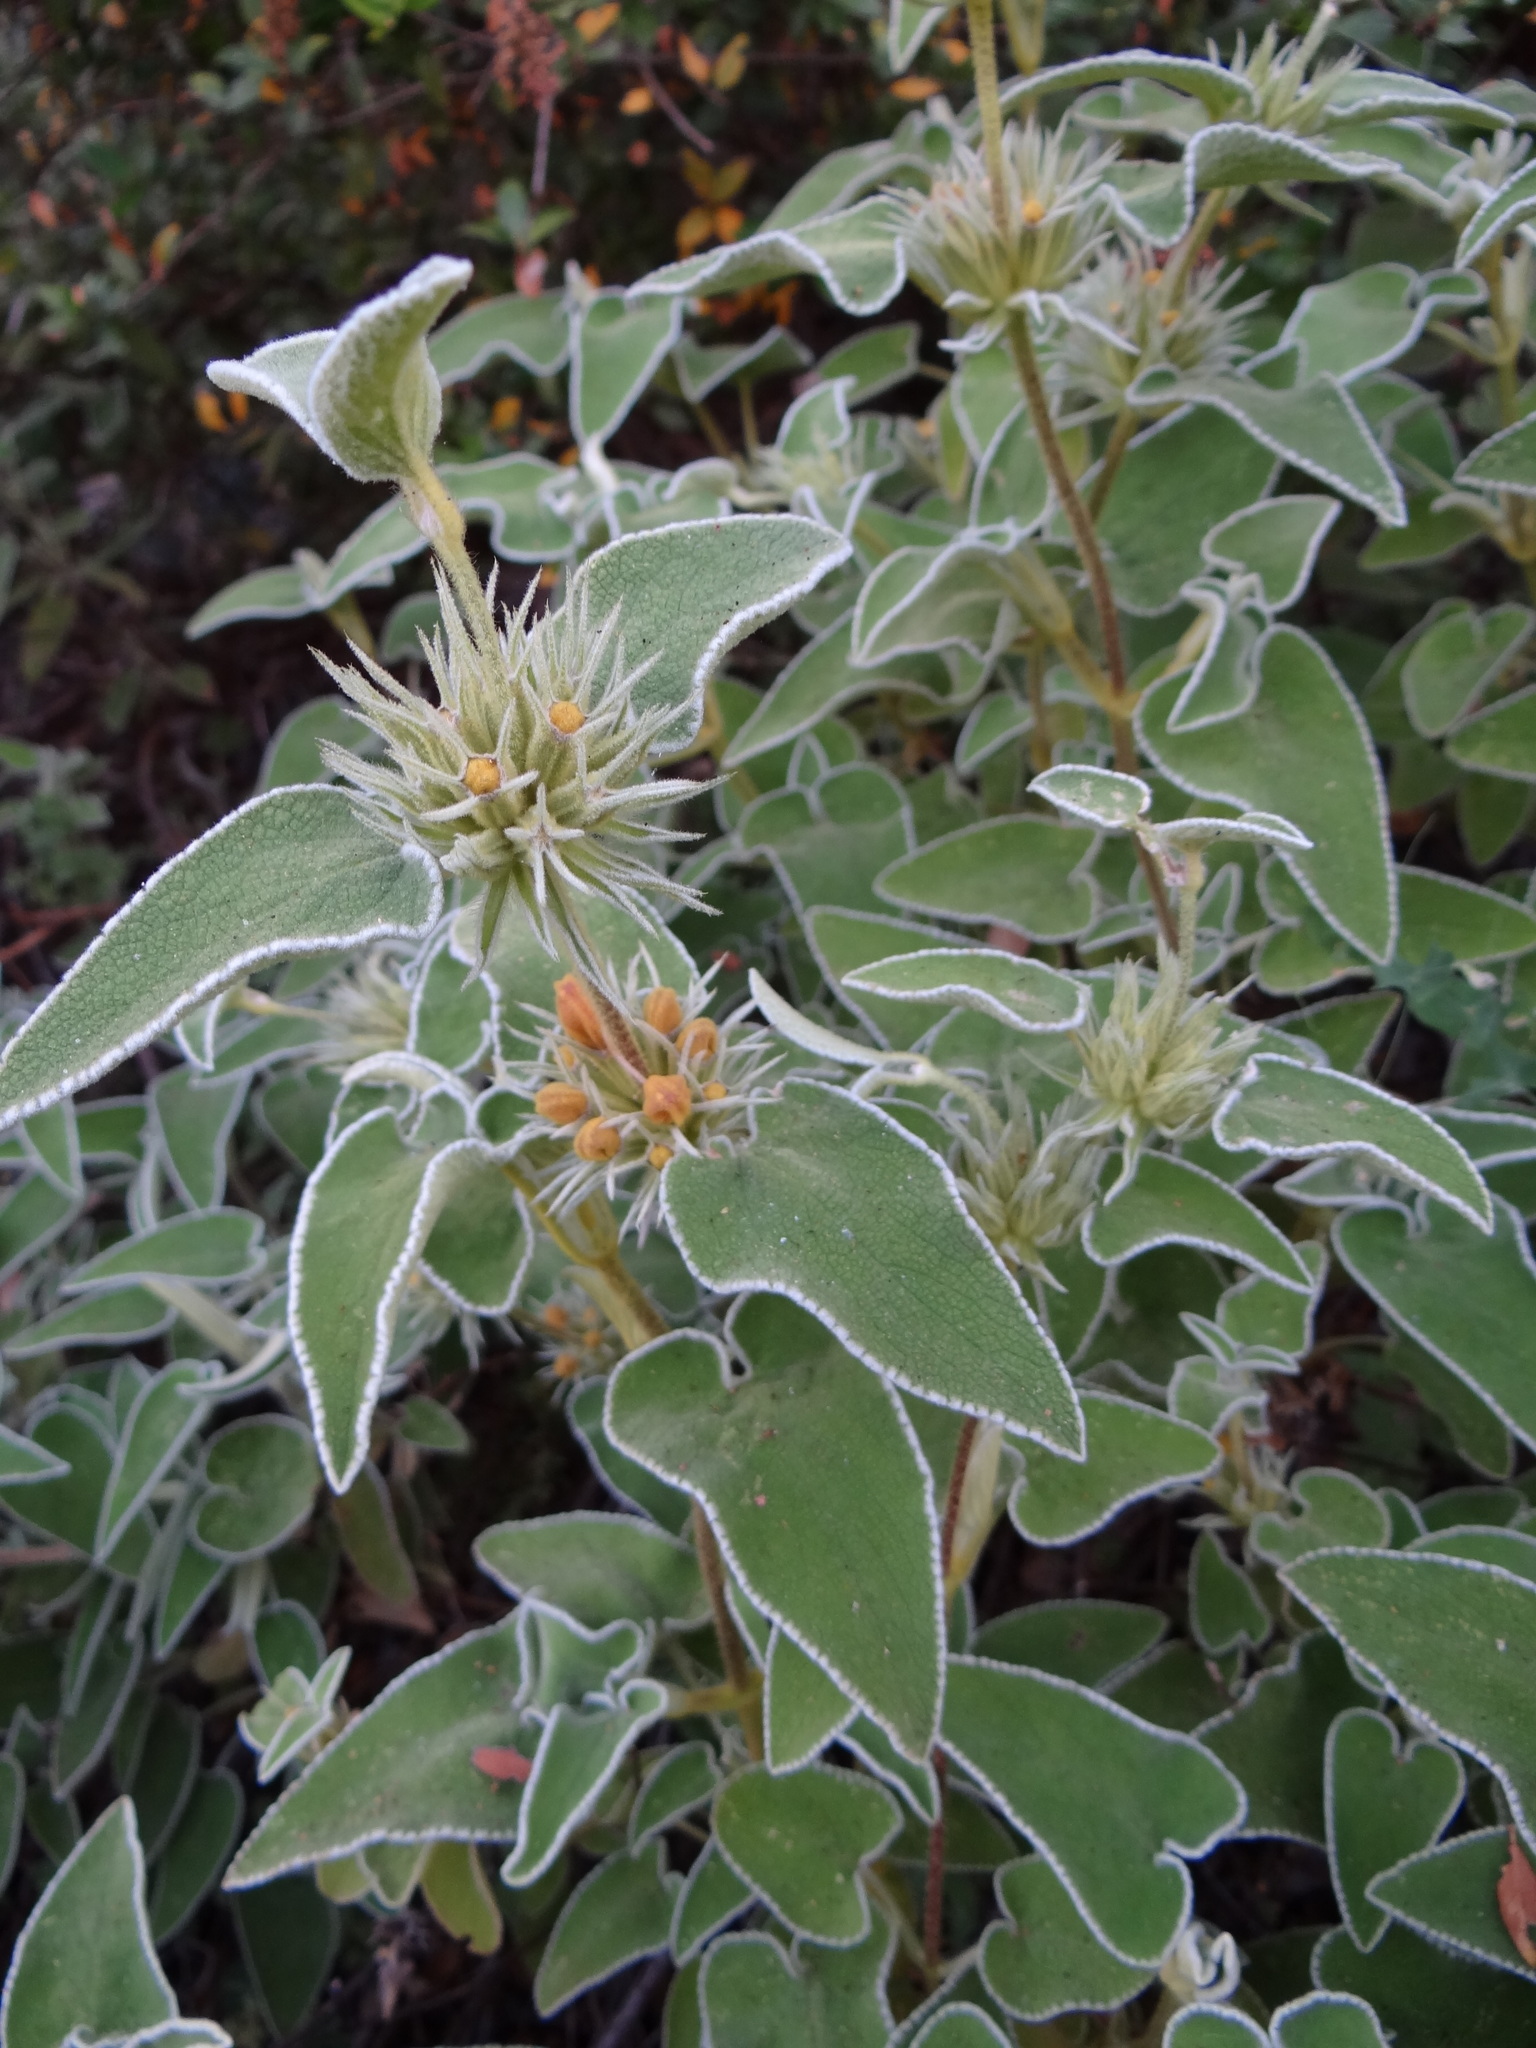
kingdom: Plantae
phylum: Tracheophyta
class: Magnoliopsida
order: Lamiales
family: Lamiaceae
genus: Phlomis
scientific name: Phlomis leucophracta
